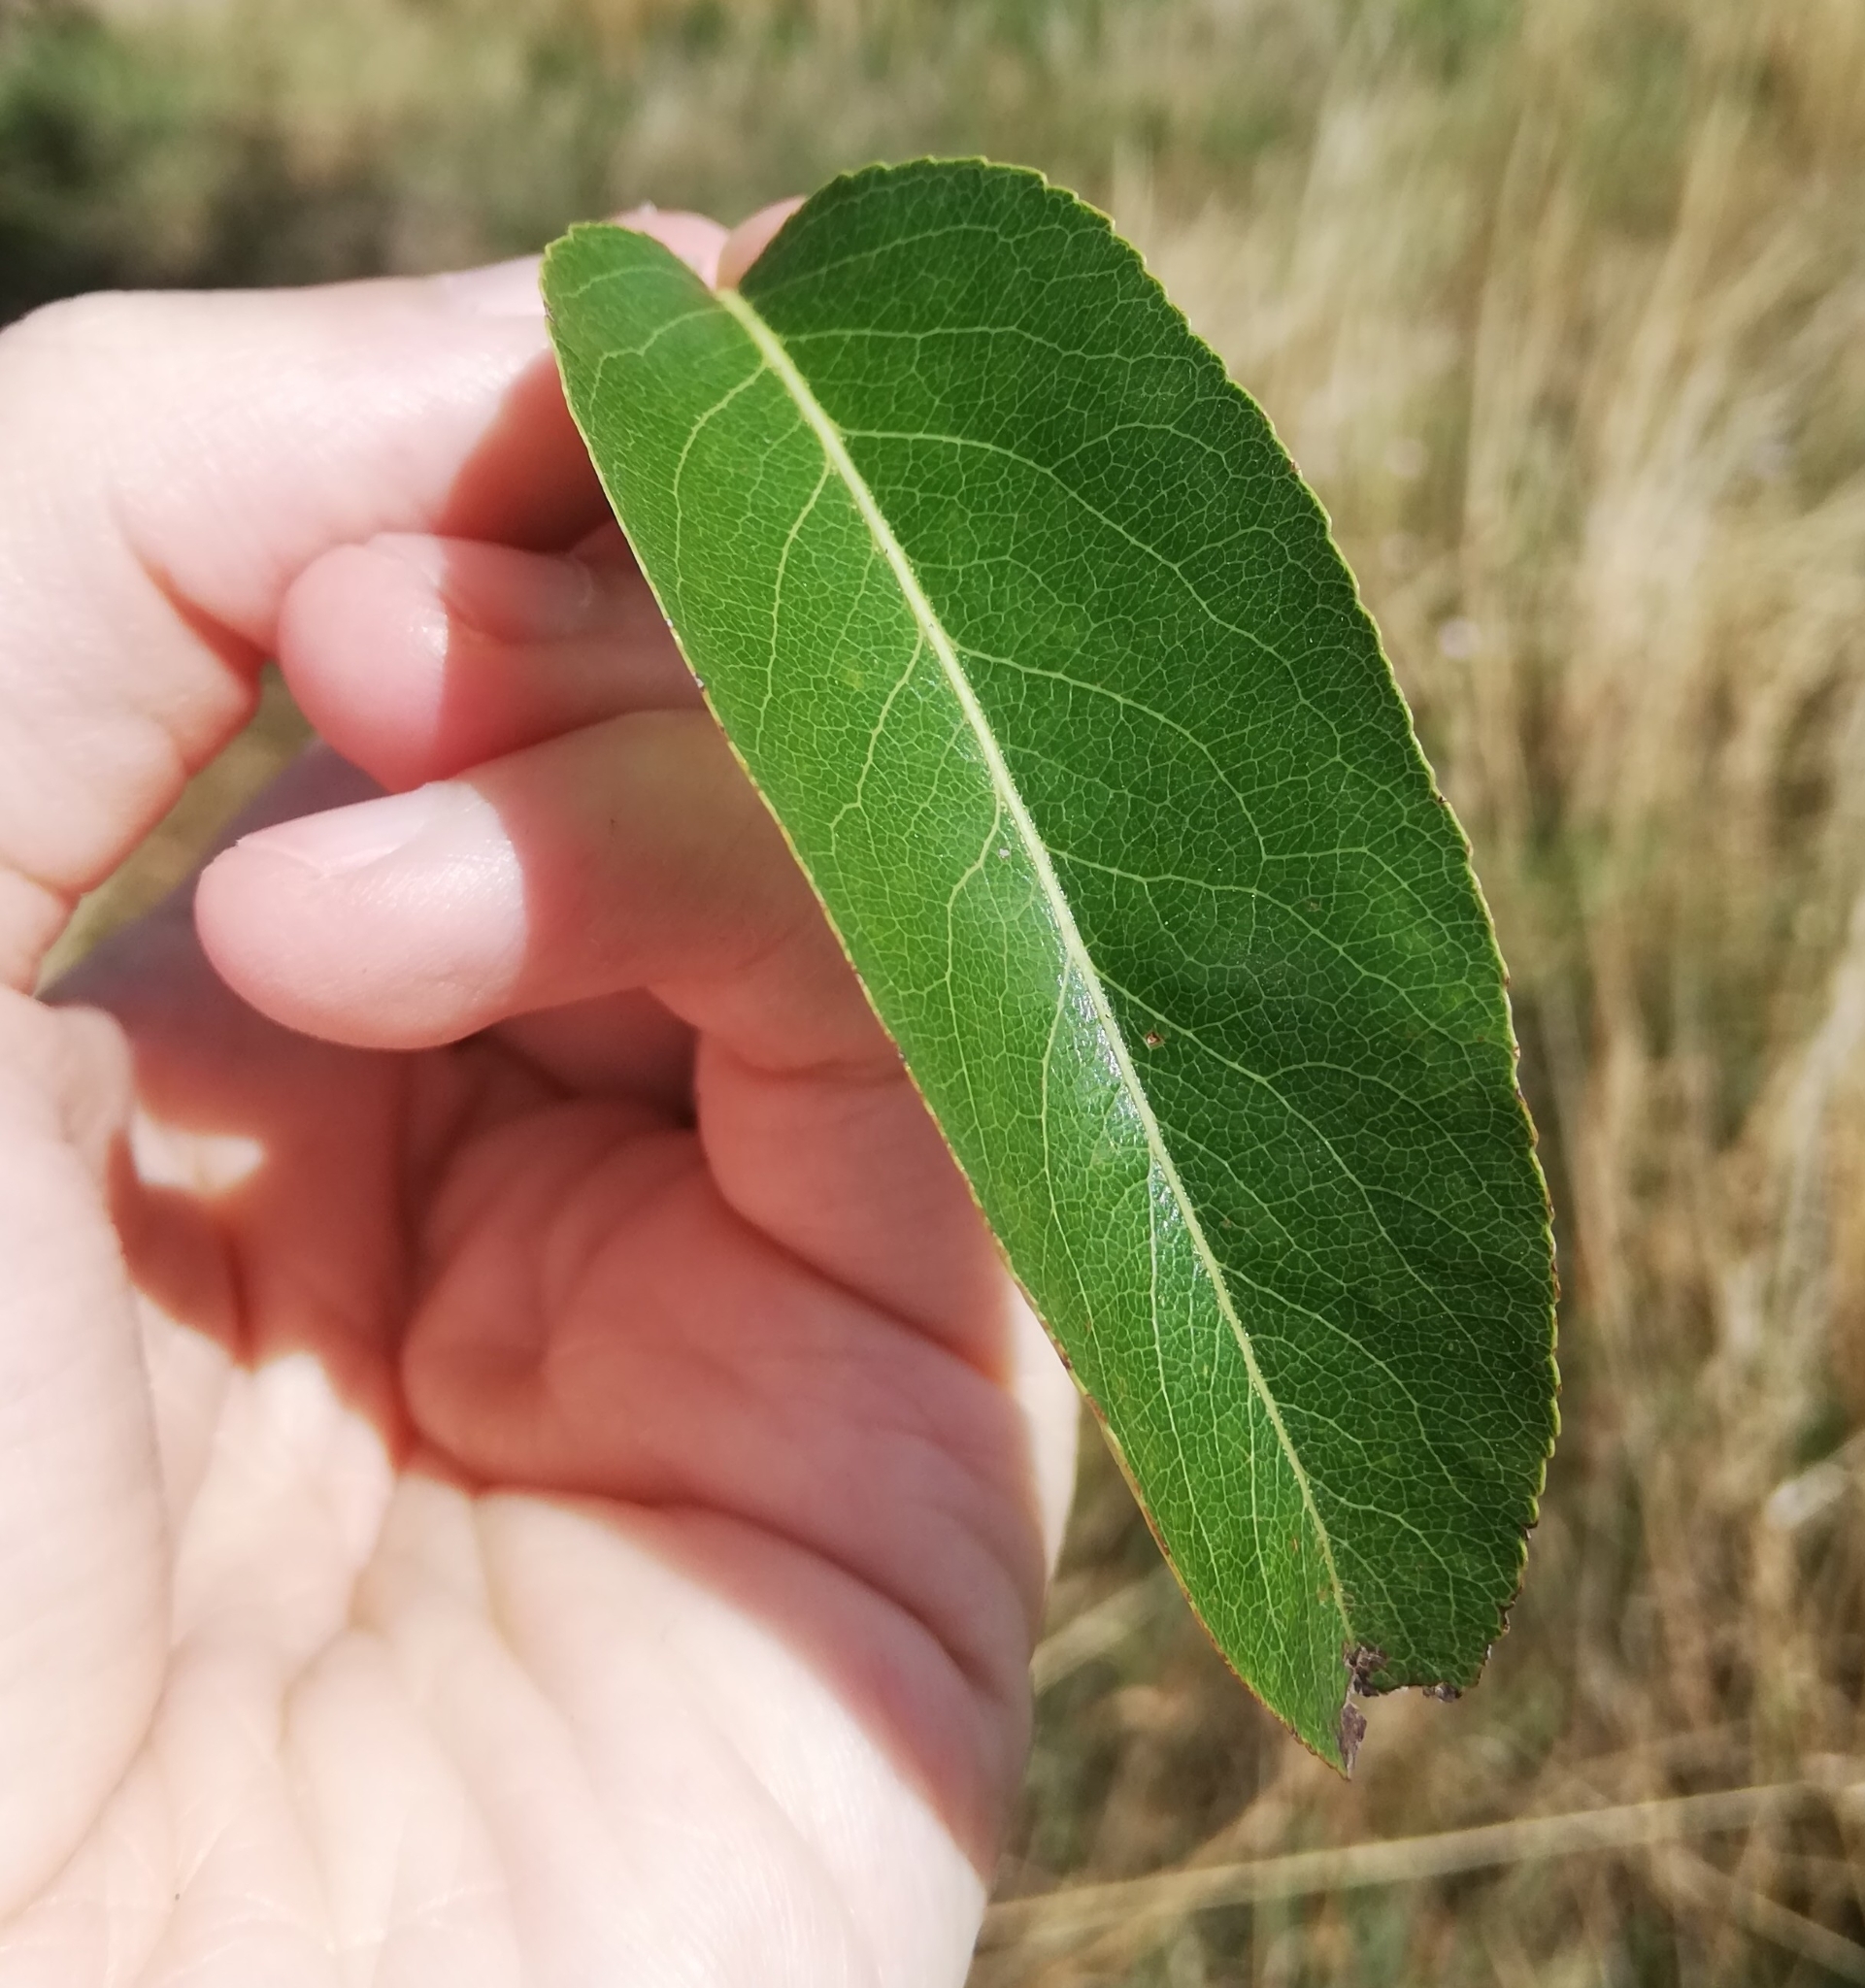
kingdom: Plantae
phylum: Tracheophyta
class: Magnoliopsida
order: Rosales
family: Rosaceae
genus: Pyrus
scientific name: Pyrus communis
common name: Pear
